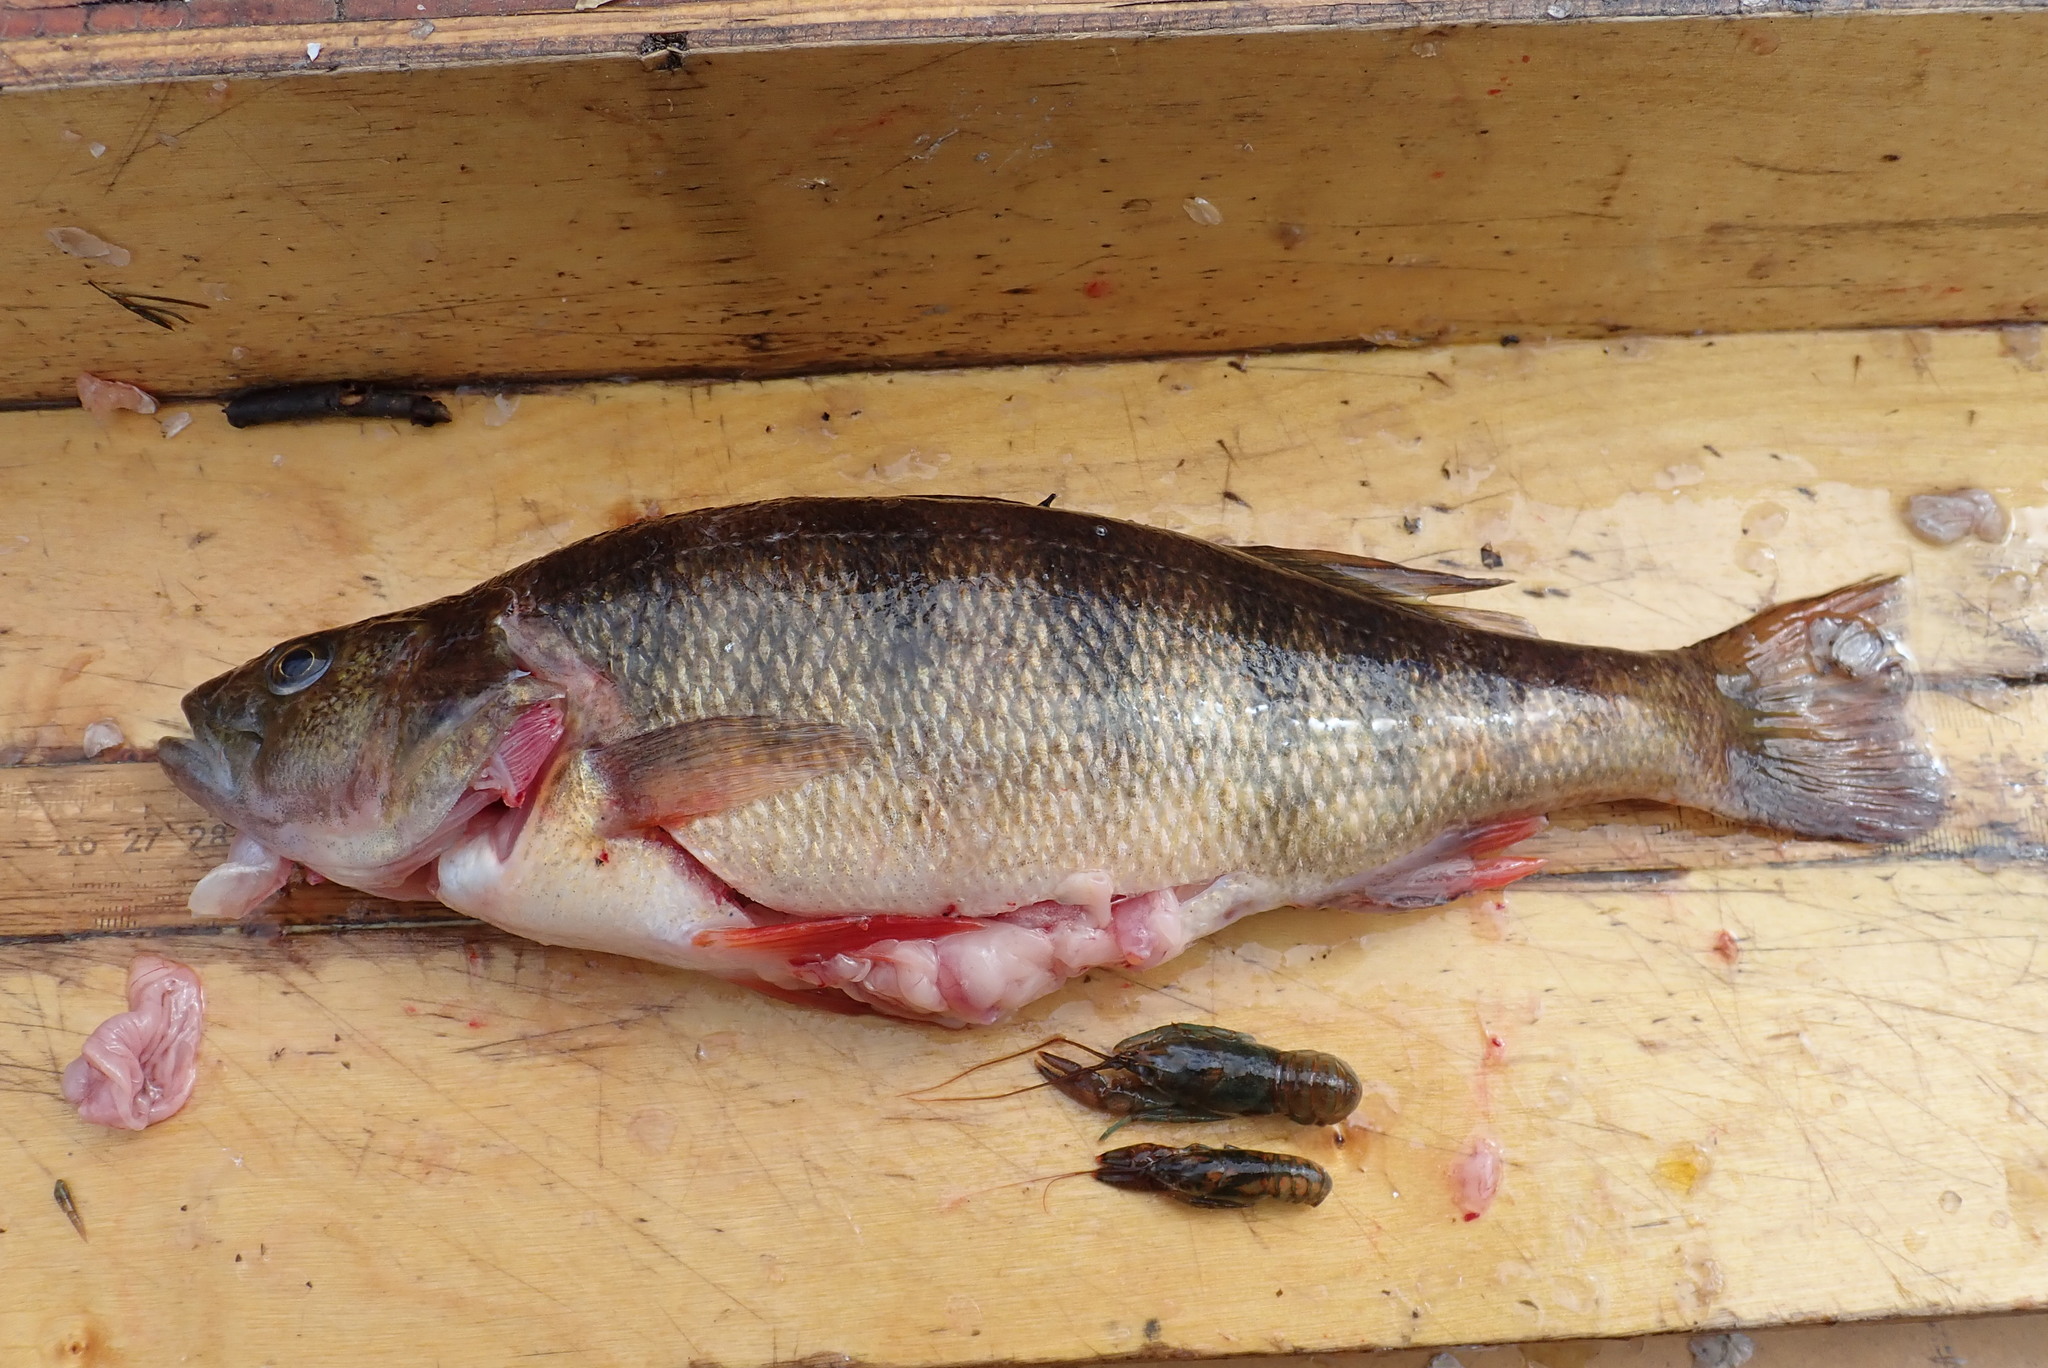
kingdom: Animalia
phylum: Chordata
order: Perciformes
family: Percidae
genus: Perca
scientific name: Perca flavescens
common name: Yellow perch
